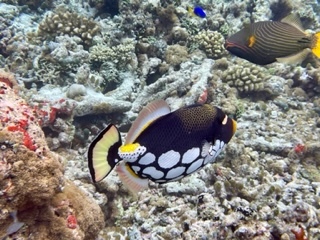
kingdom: Animalia
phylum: Chordata
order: Tetraodontiformes
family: Balistidae
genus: Balistoides
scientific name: Balistoides conspicillum
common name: Clown triggerfish
